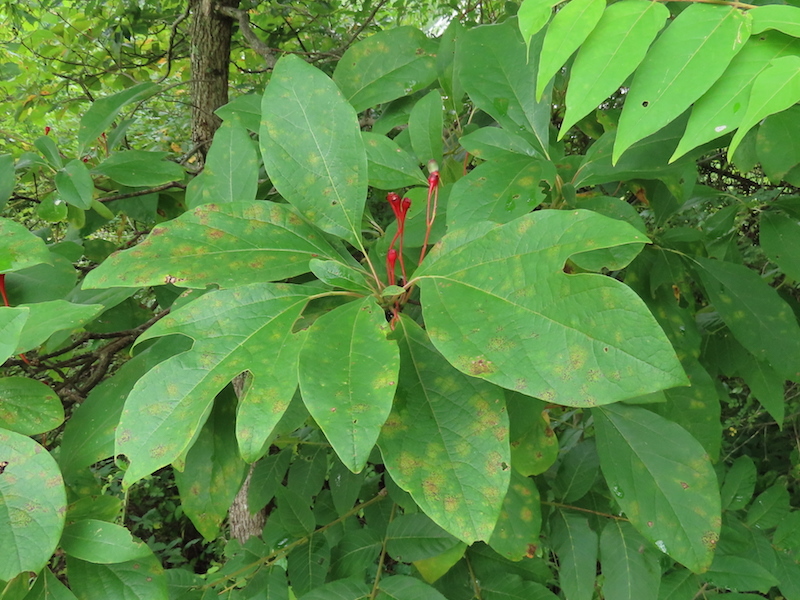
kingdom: Plantae
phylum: Tracheophyta
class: Magnoliopsida
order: Laurales
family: Lauraceae
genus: Sassafras
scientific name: Sassafras albidum
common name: Sassafras
